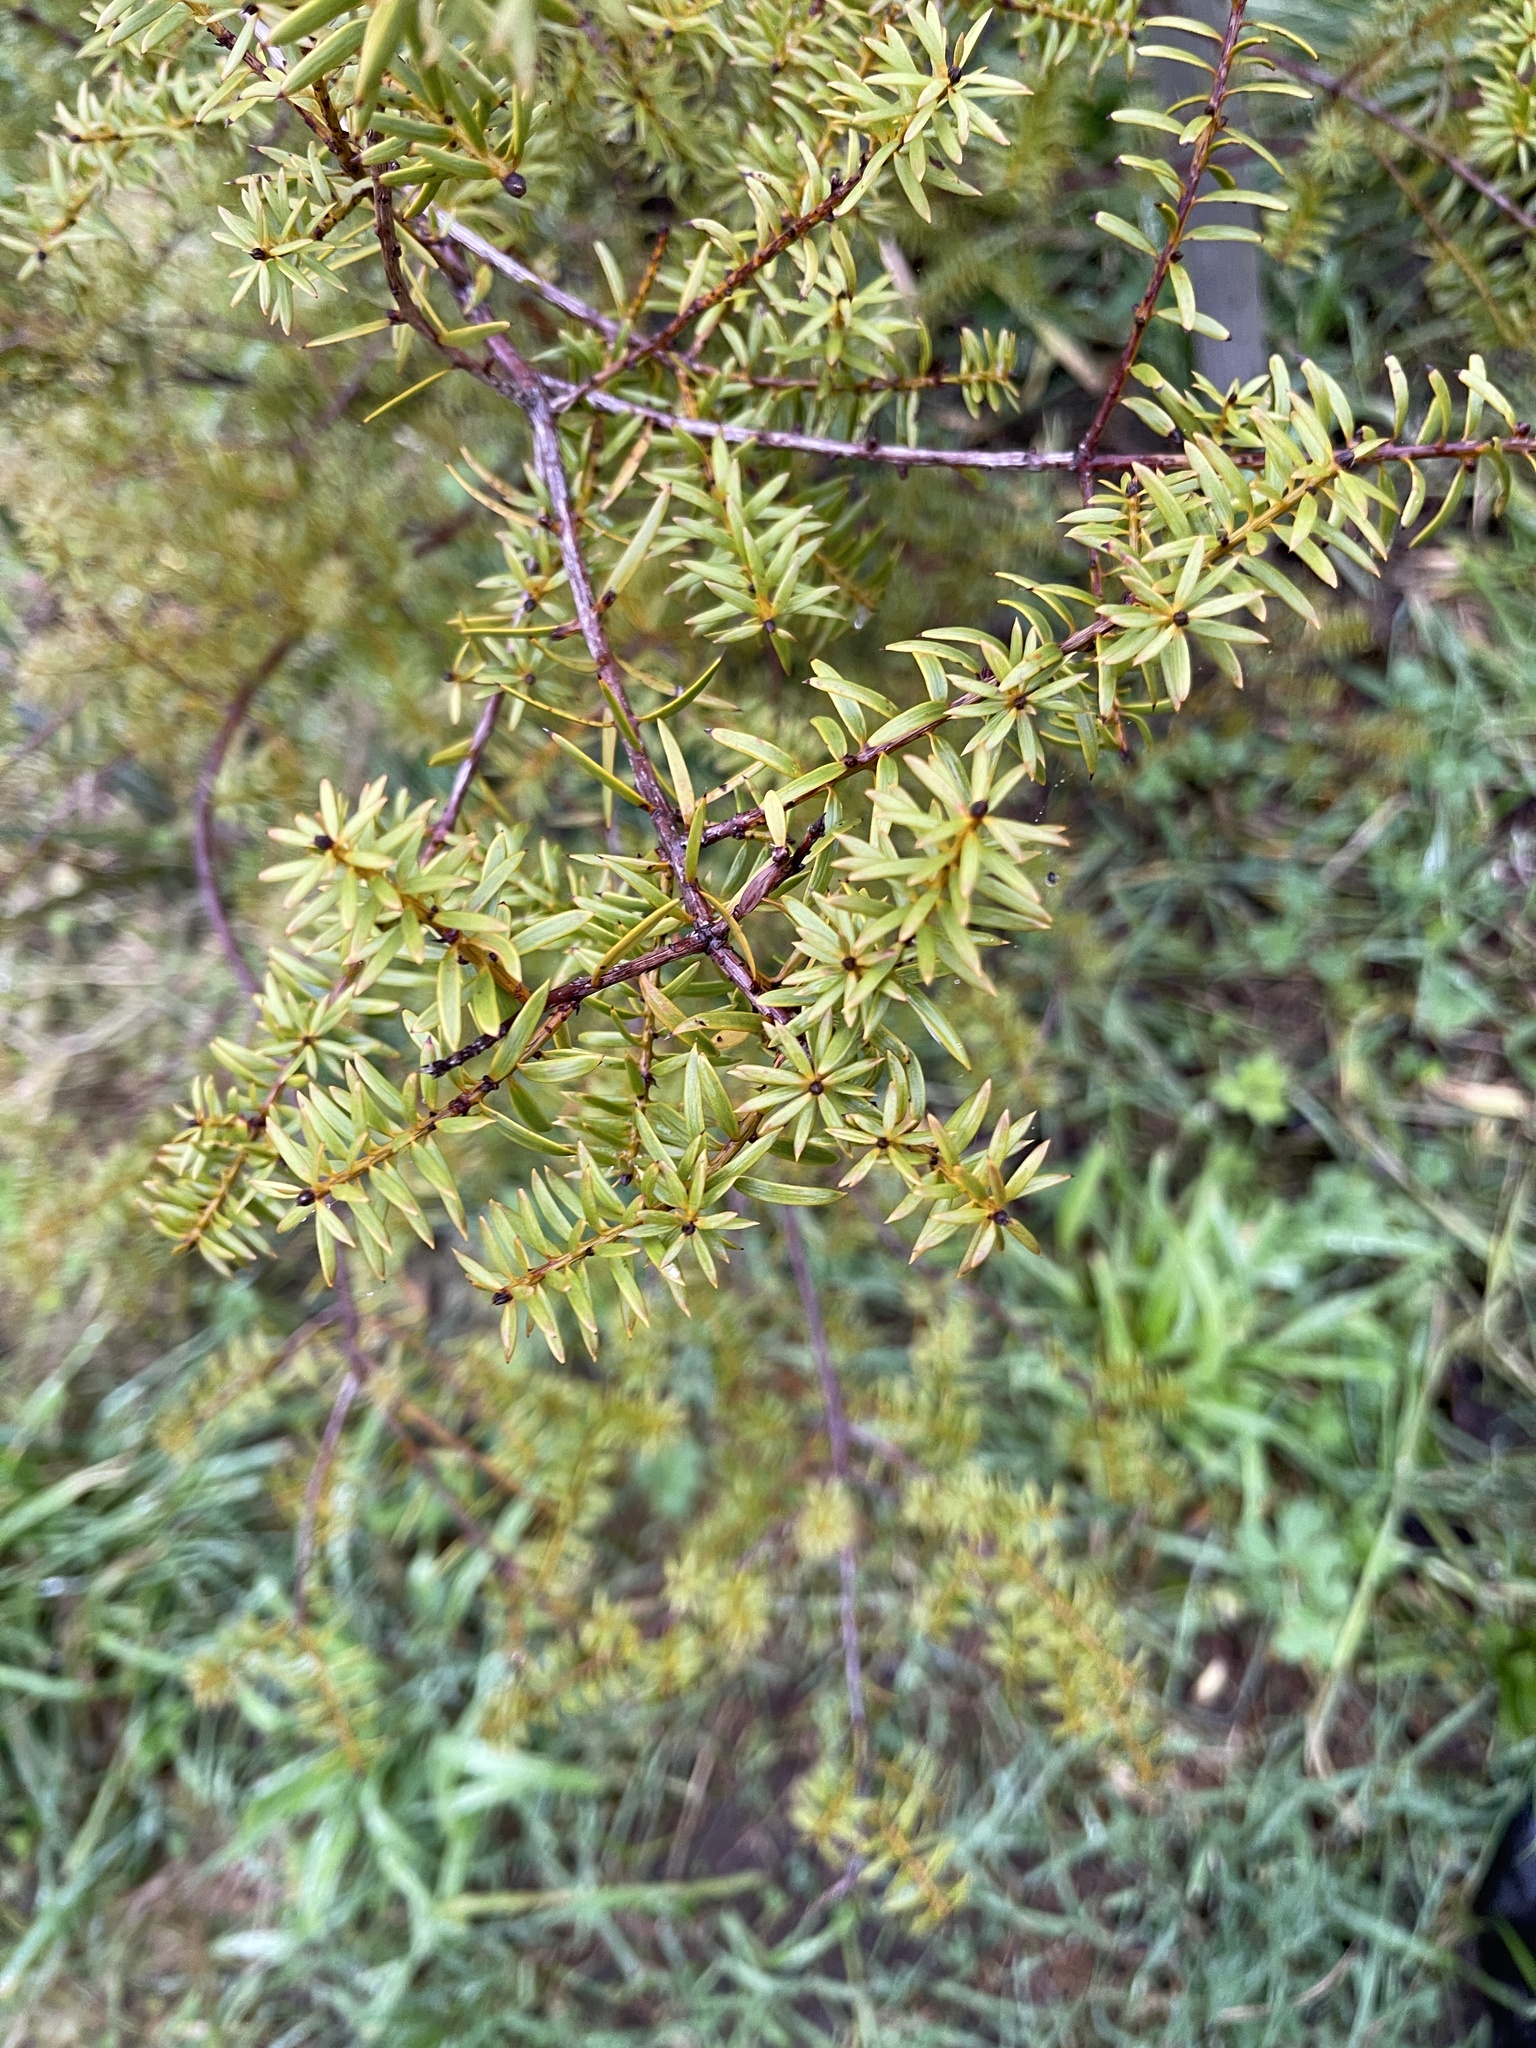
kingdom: Plantae
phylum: Tracheophyta
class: Pinopsida
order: Pinales
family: Podocarpaceae
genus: Podocarpus
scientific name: Podocarpus totara
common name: Totara
